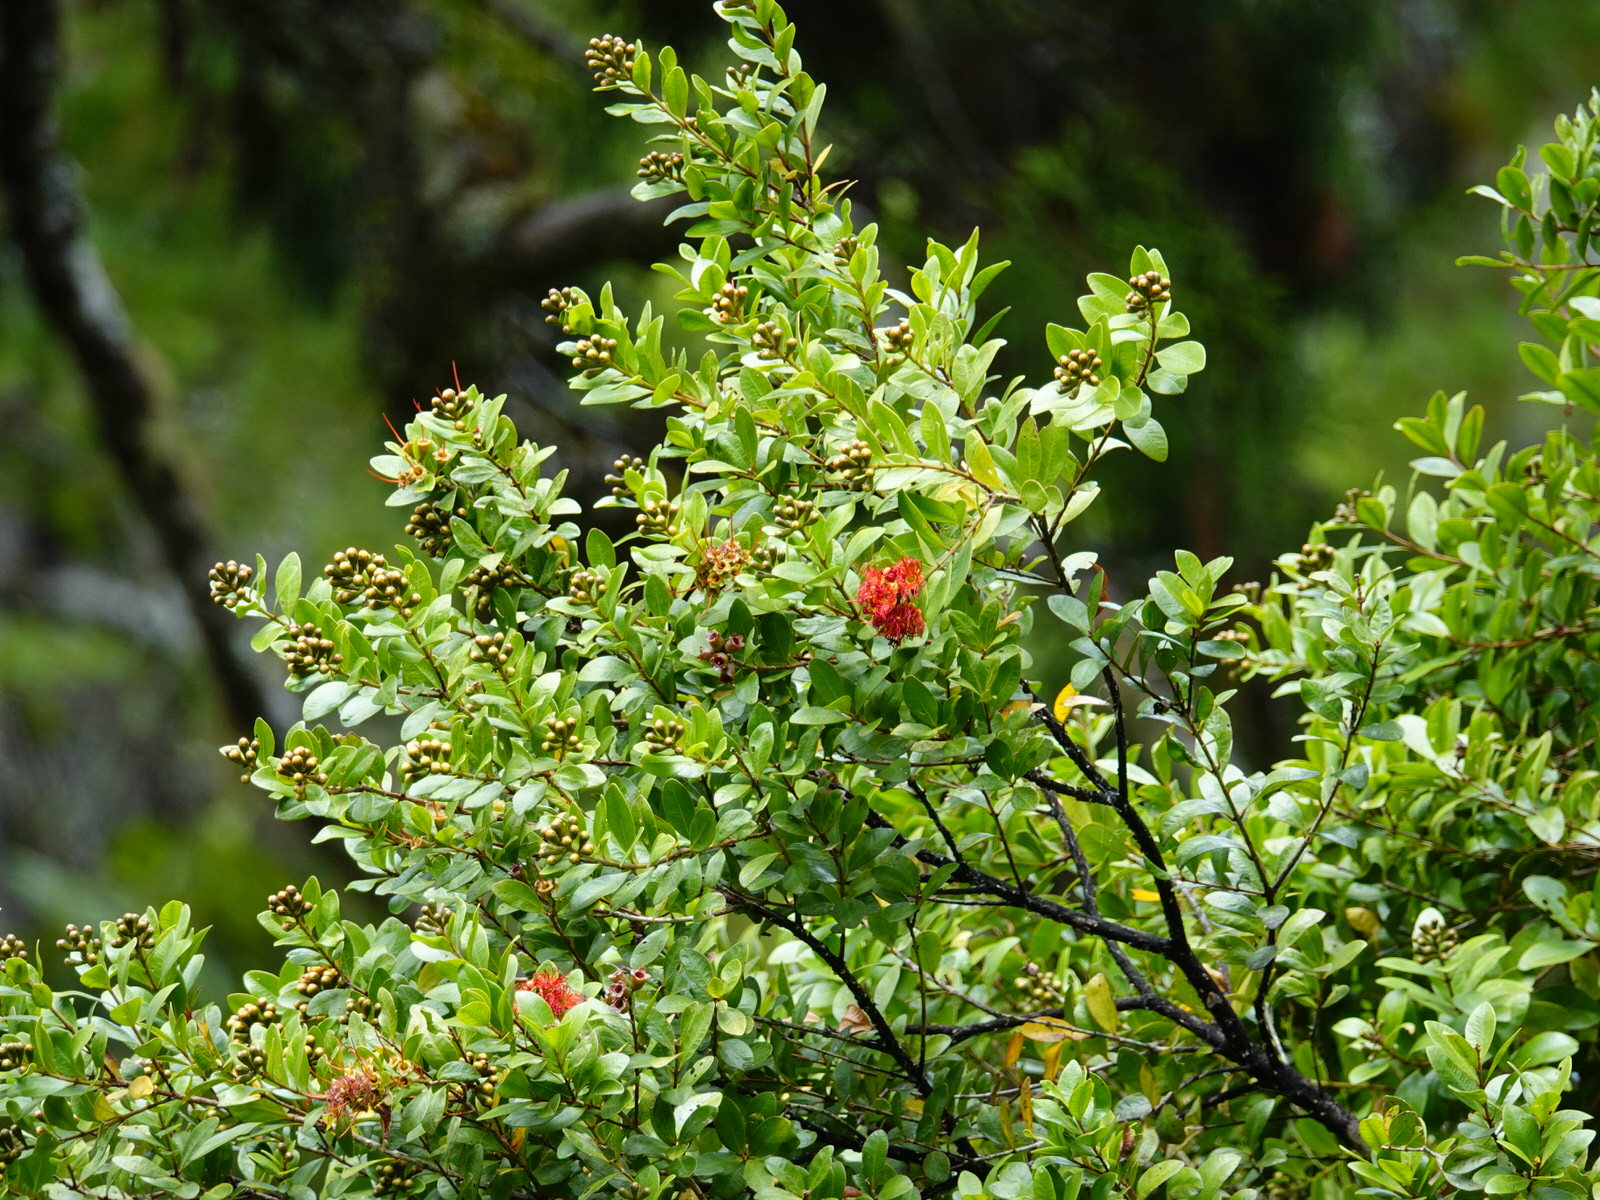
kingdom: Plantae
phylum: Tracheophyta
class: Magnoliopsida
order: Myrtales
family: Myrtaceae
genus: Metrosideros
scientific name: Metrosideros fulgens
